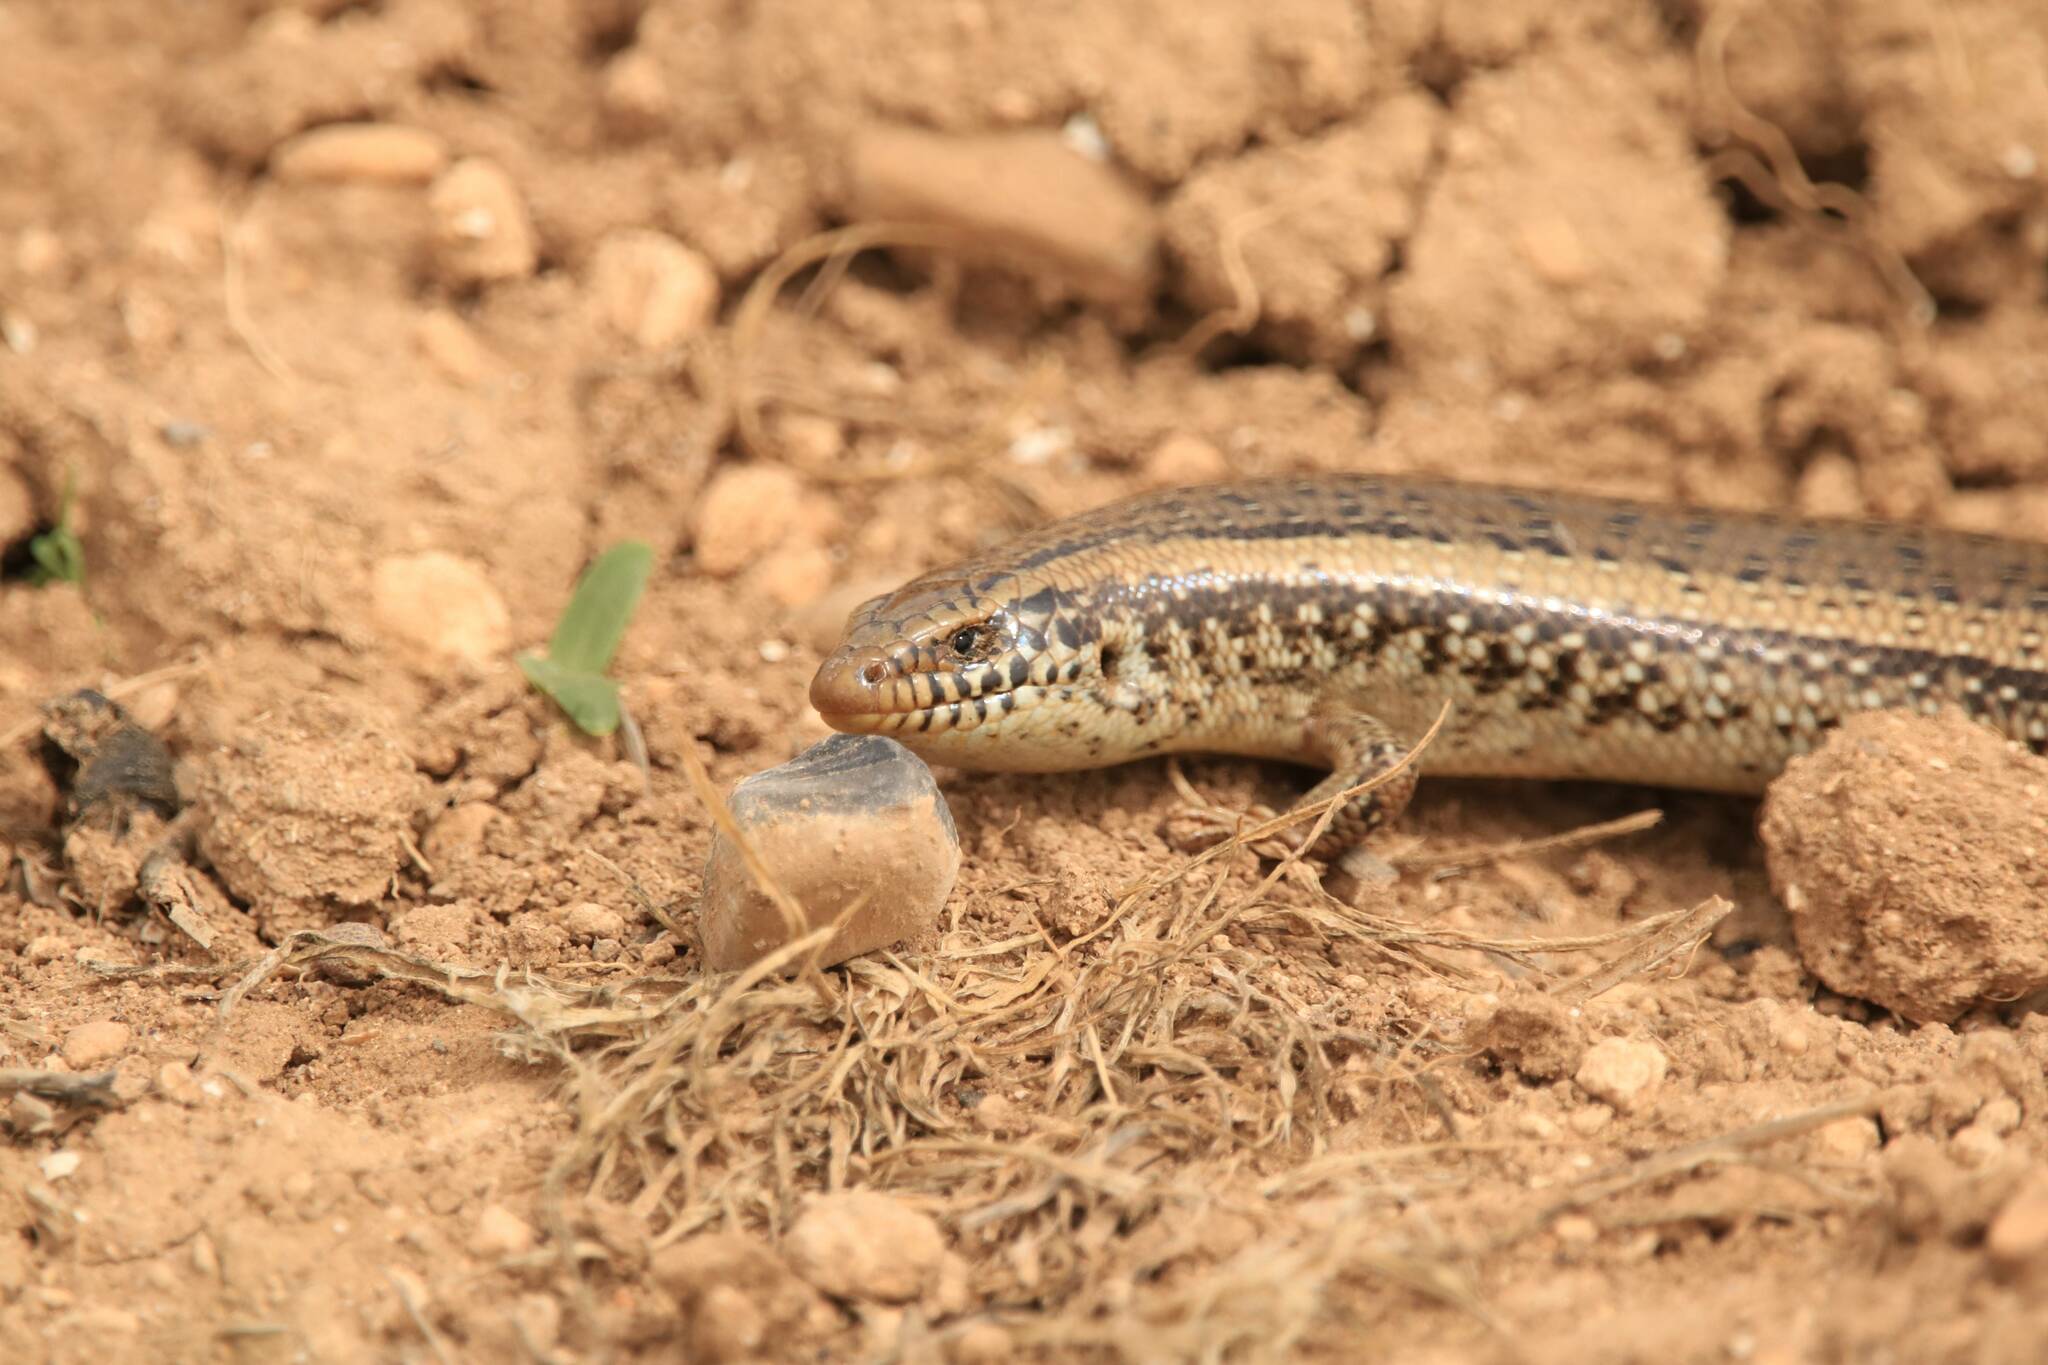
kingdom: Animalia
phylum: Chordata
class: Squamata
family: Scincidae
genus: Chalcides
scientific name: Chalcides ocellatus
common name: Ocellated skink
